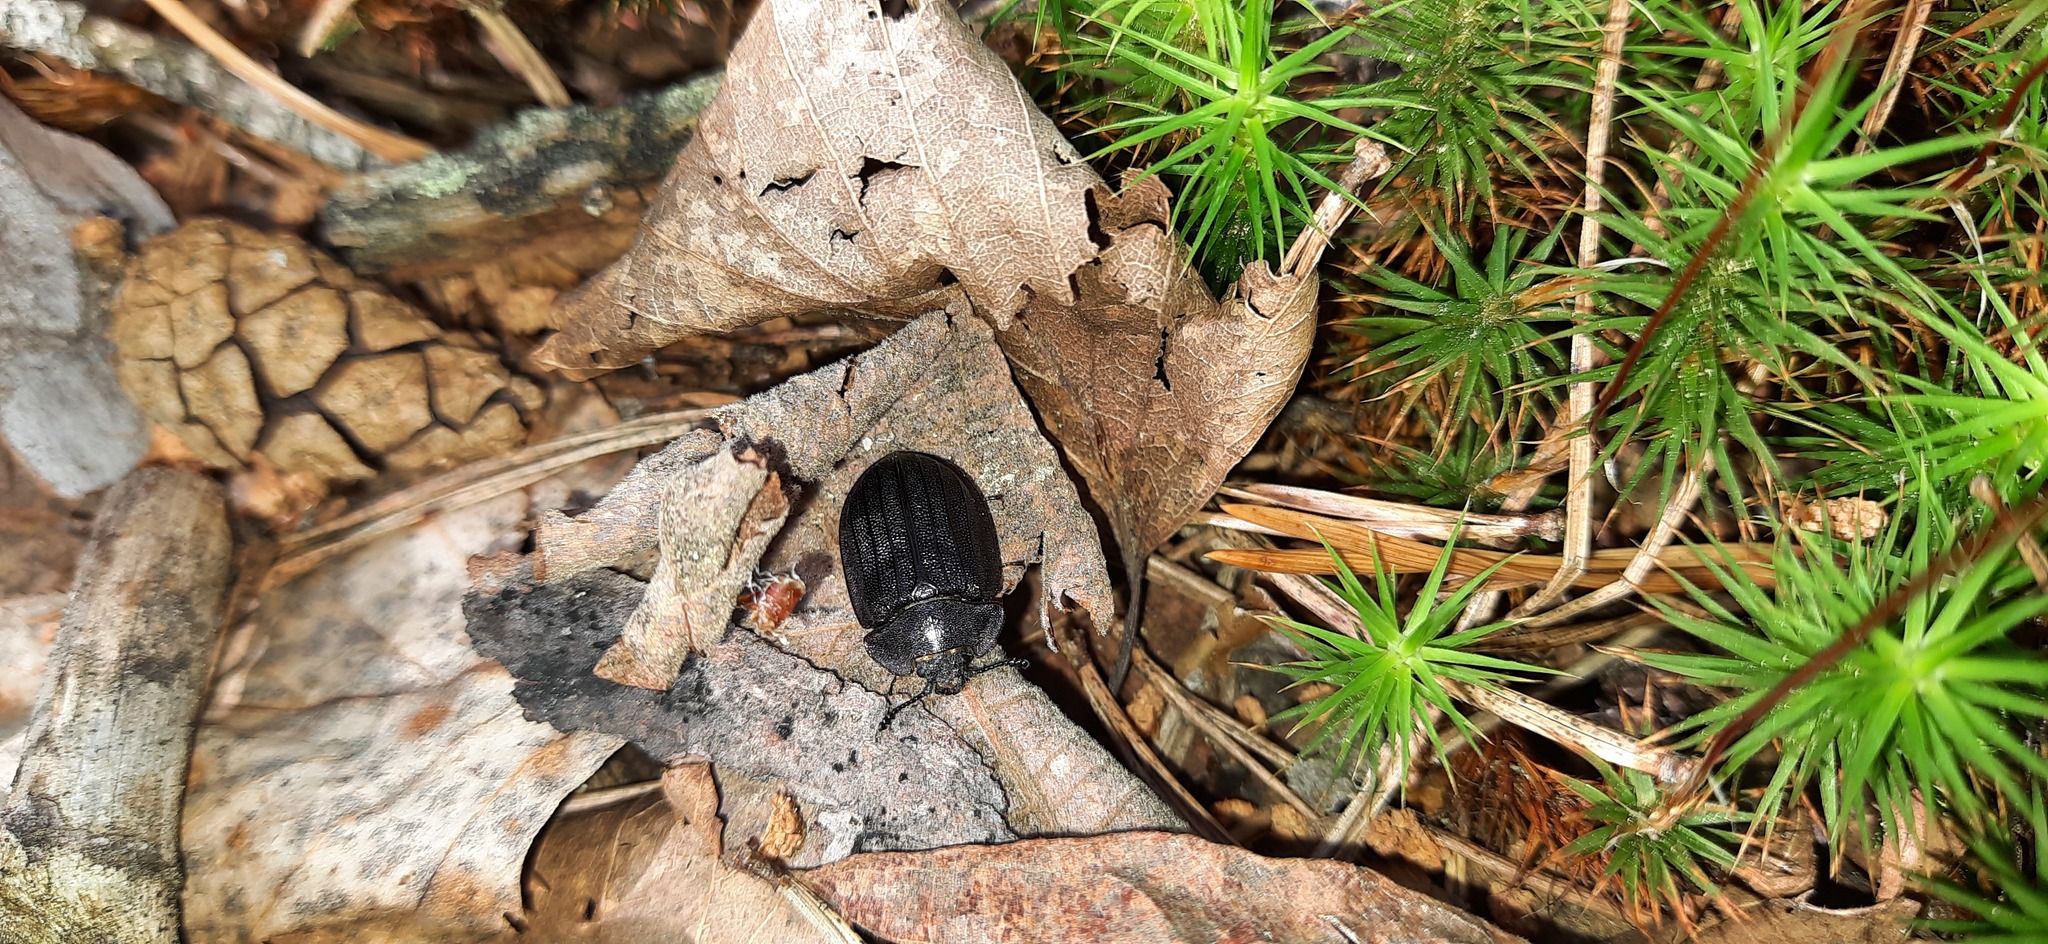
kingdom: Animalia
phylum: Arthropoda
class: Insecta
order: Coleoptera
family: Trogossitidae
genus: Peltis
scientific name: Peltis grossa
